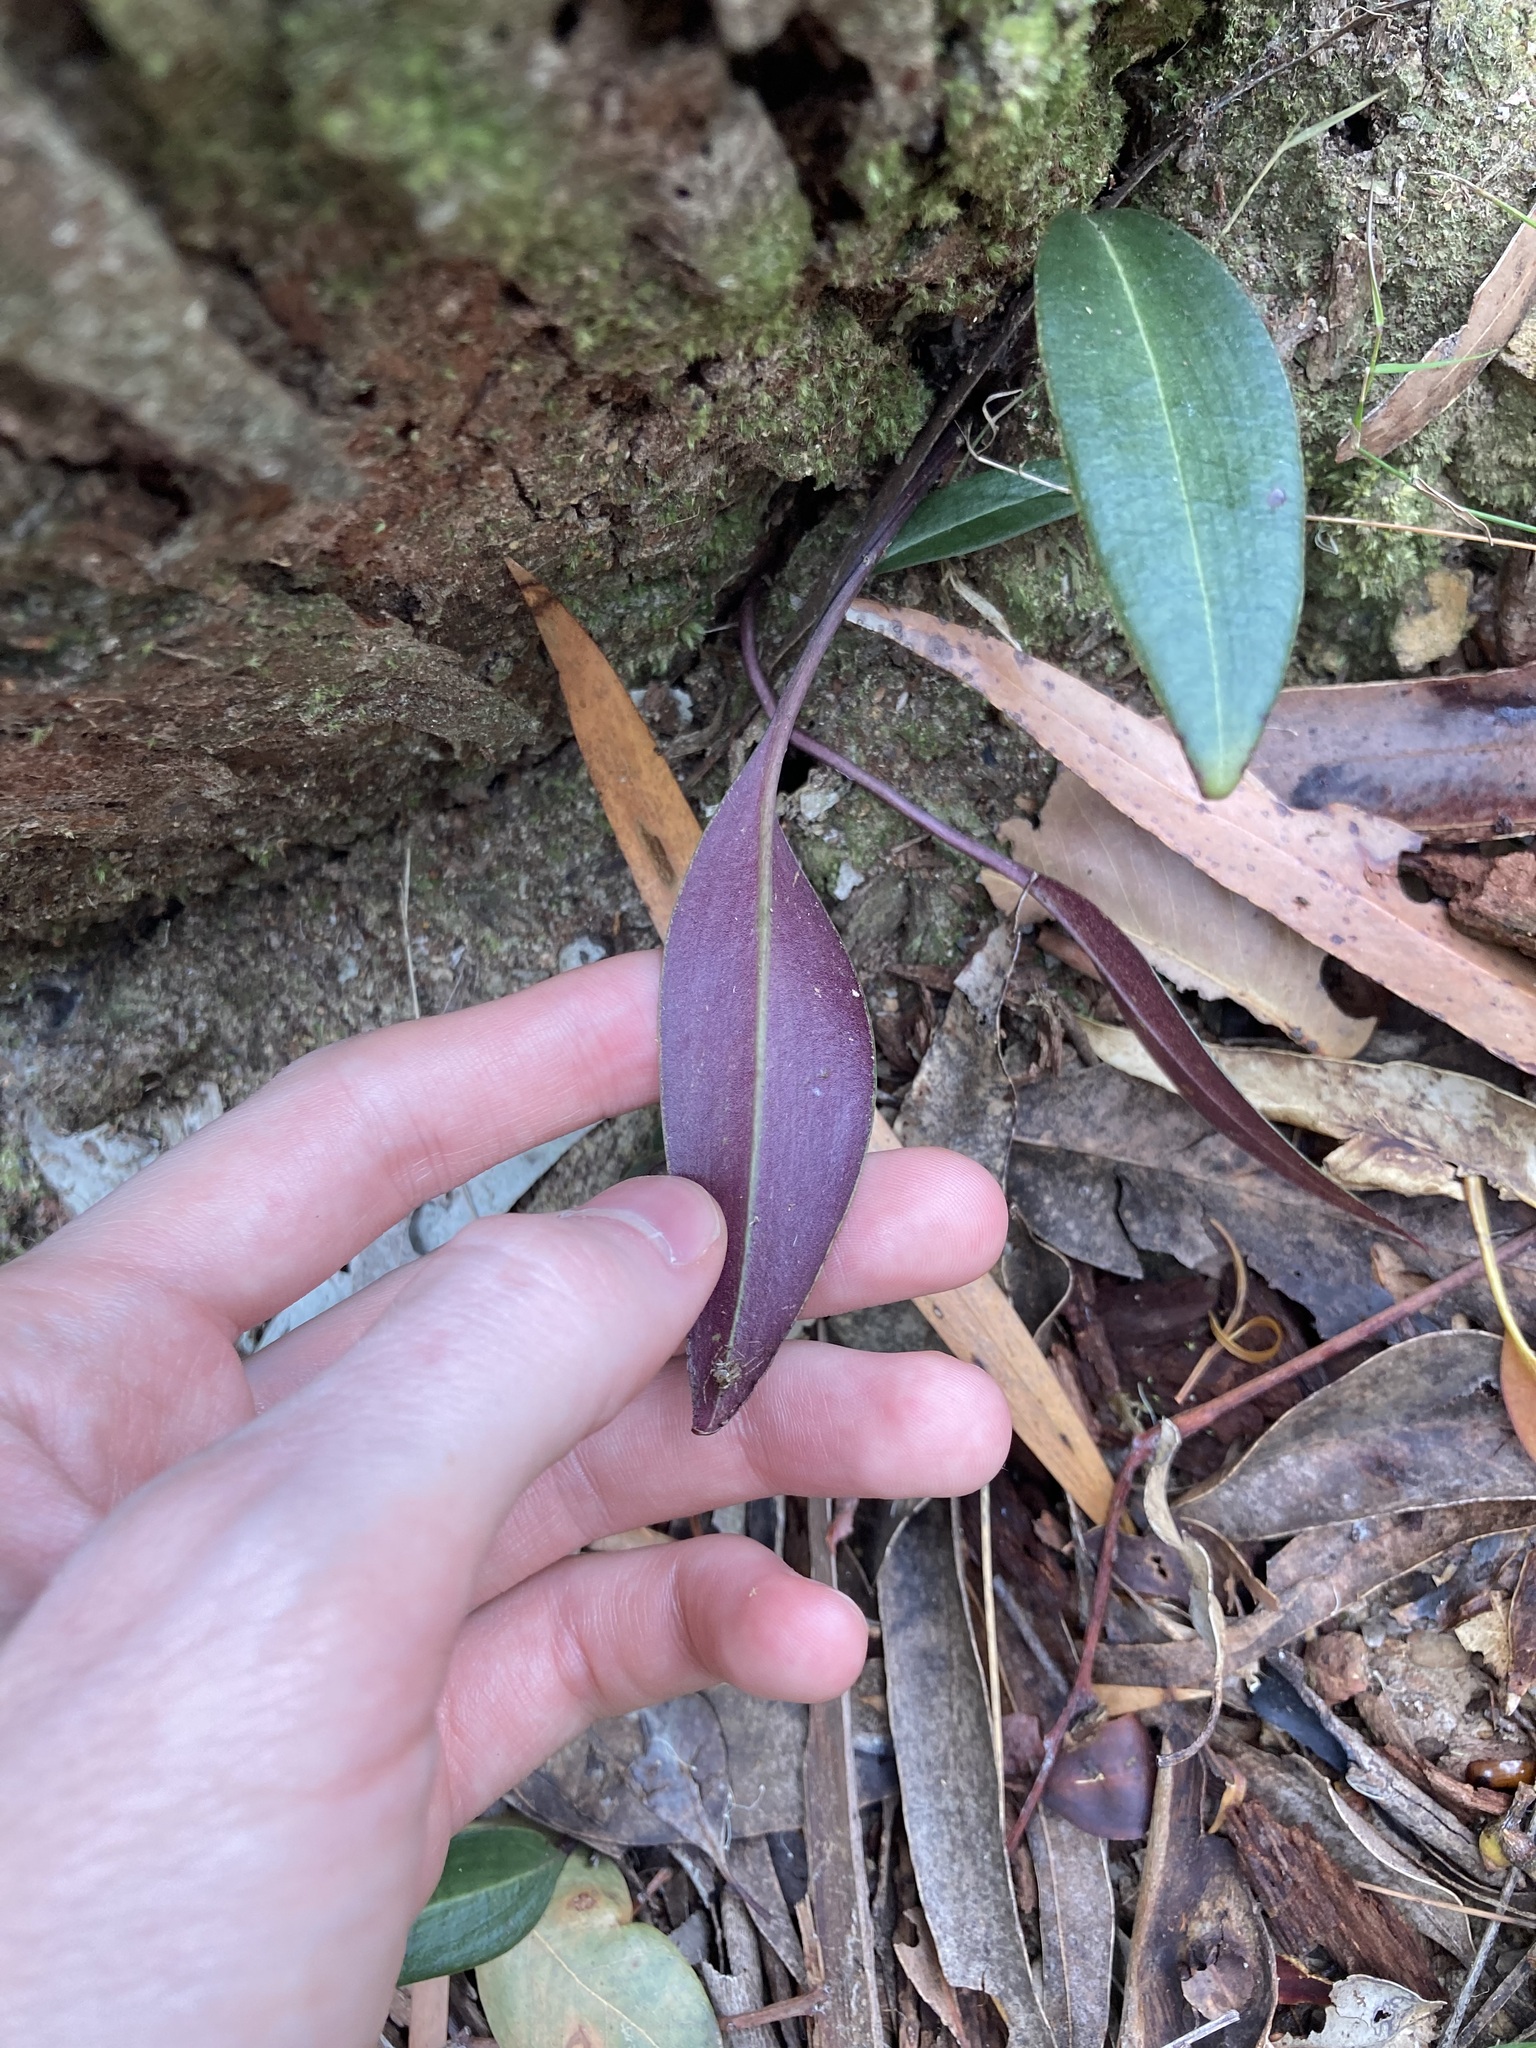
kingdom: Plantae
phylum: Tracheophyta
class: Liliopsida
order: Asparagales
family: Orchidaceae
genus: Cryptostylis
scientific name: Cryptostylis leptochila
